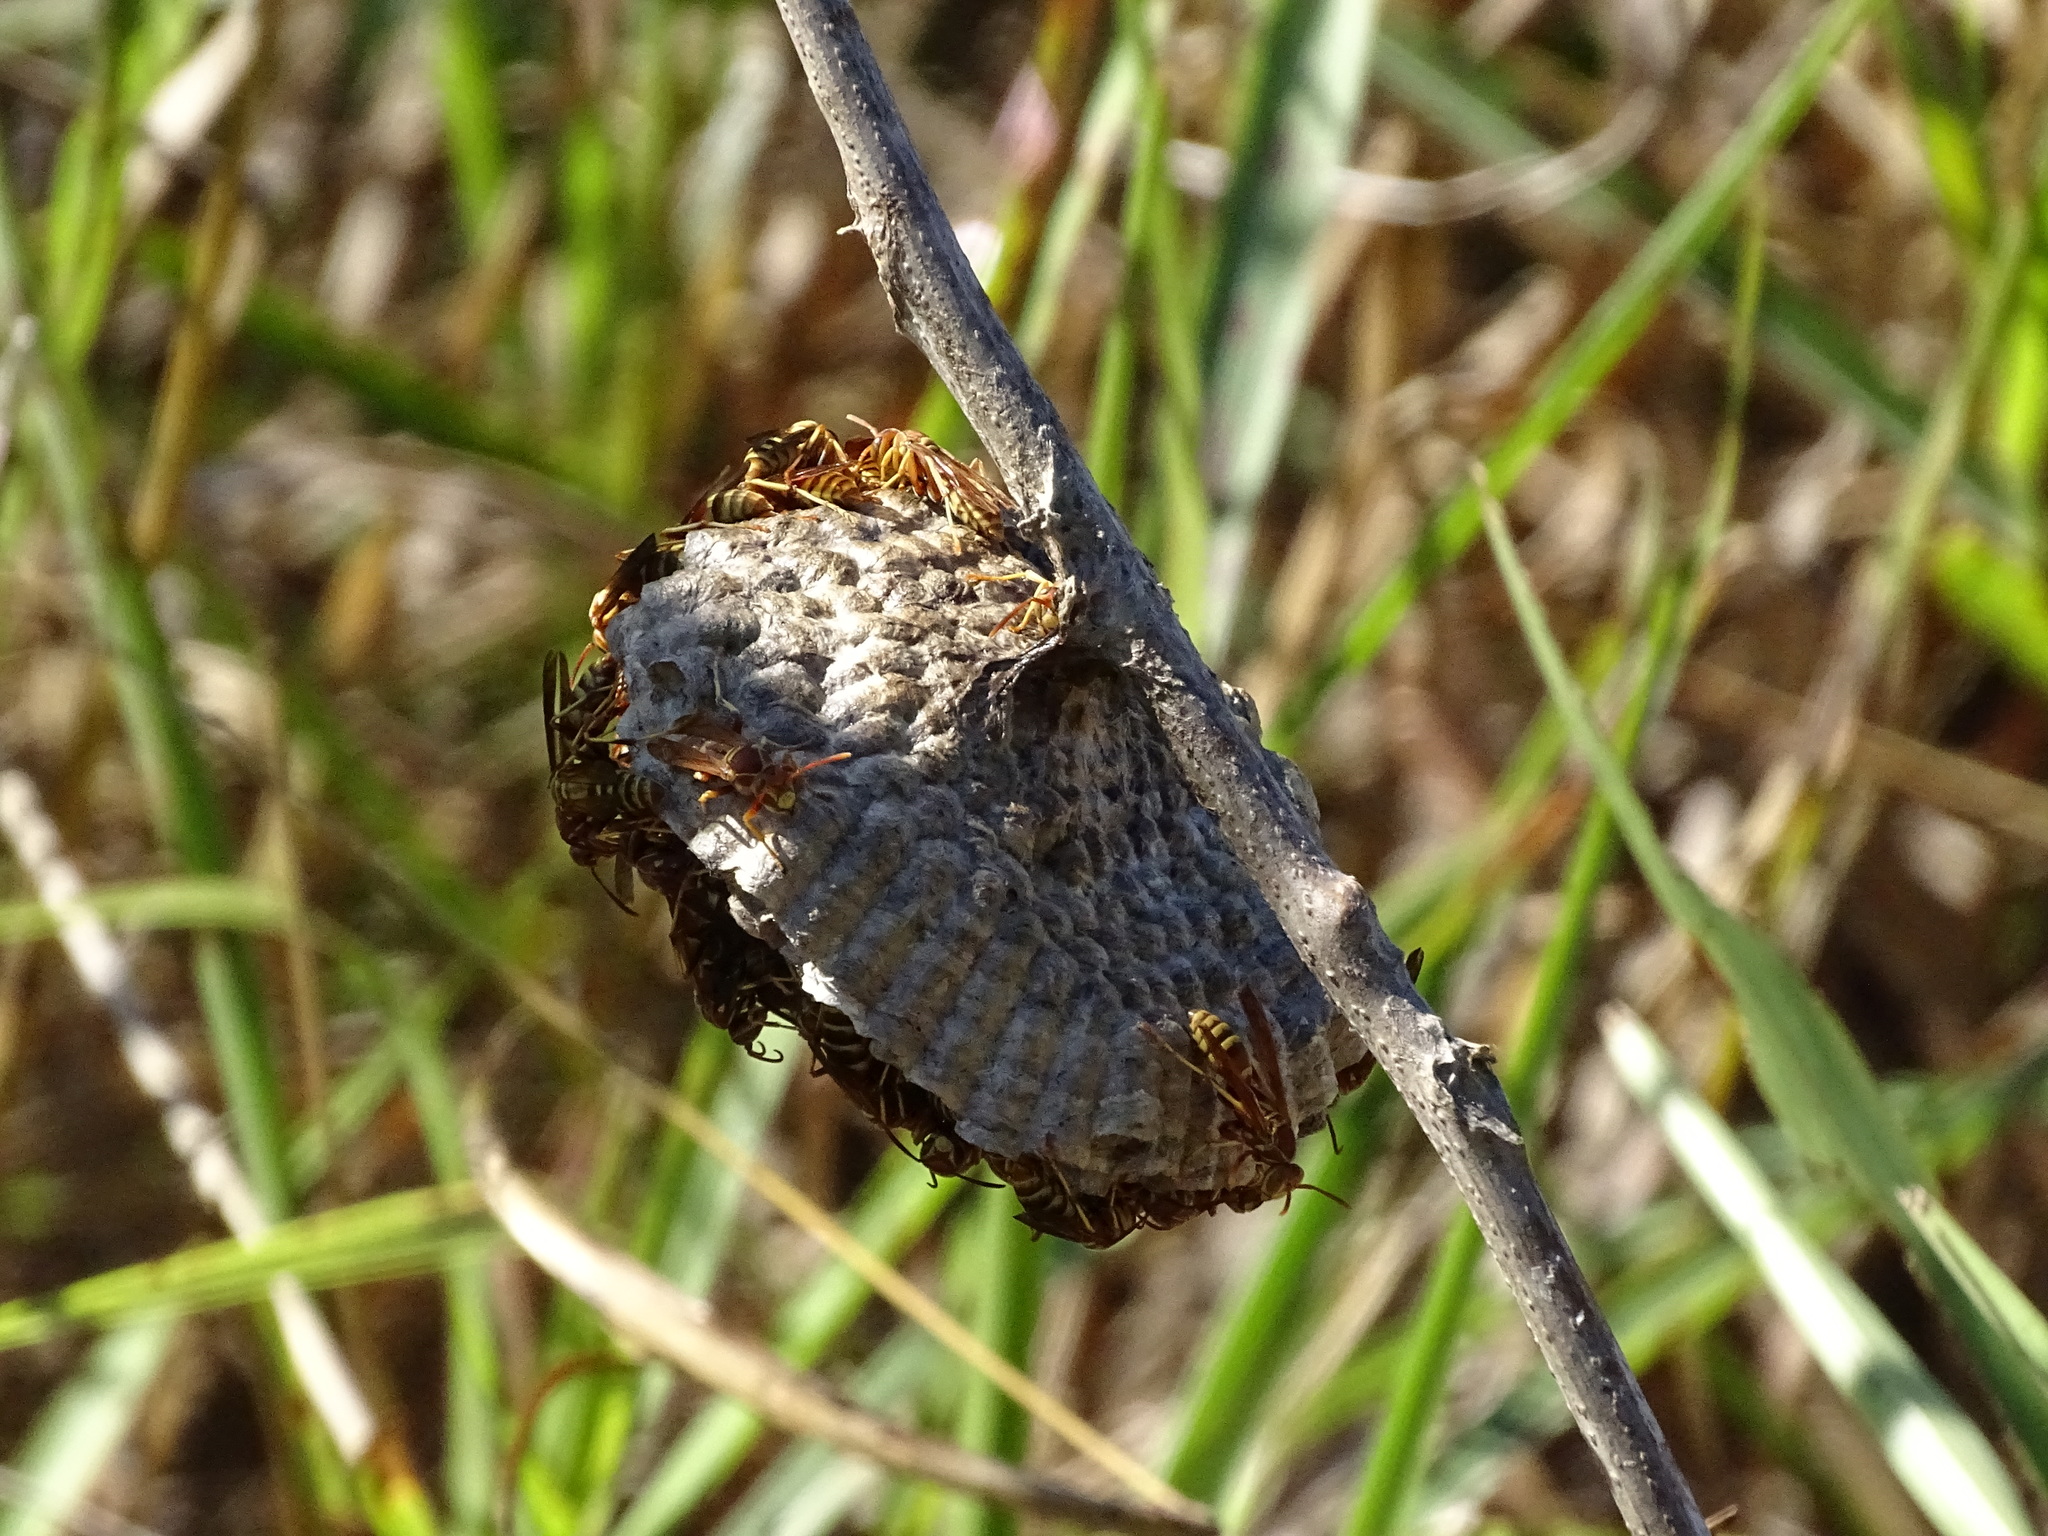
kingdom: Animalia
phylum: Arthropoda
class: Insecta
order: Hymenoptera
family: Eumenidae
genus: Polistes
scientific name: Polistes dorsalis
